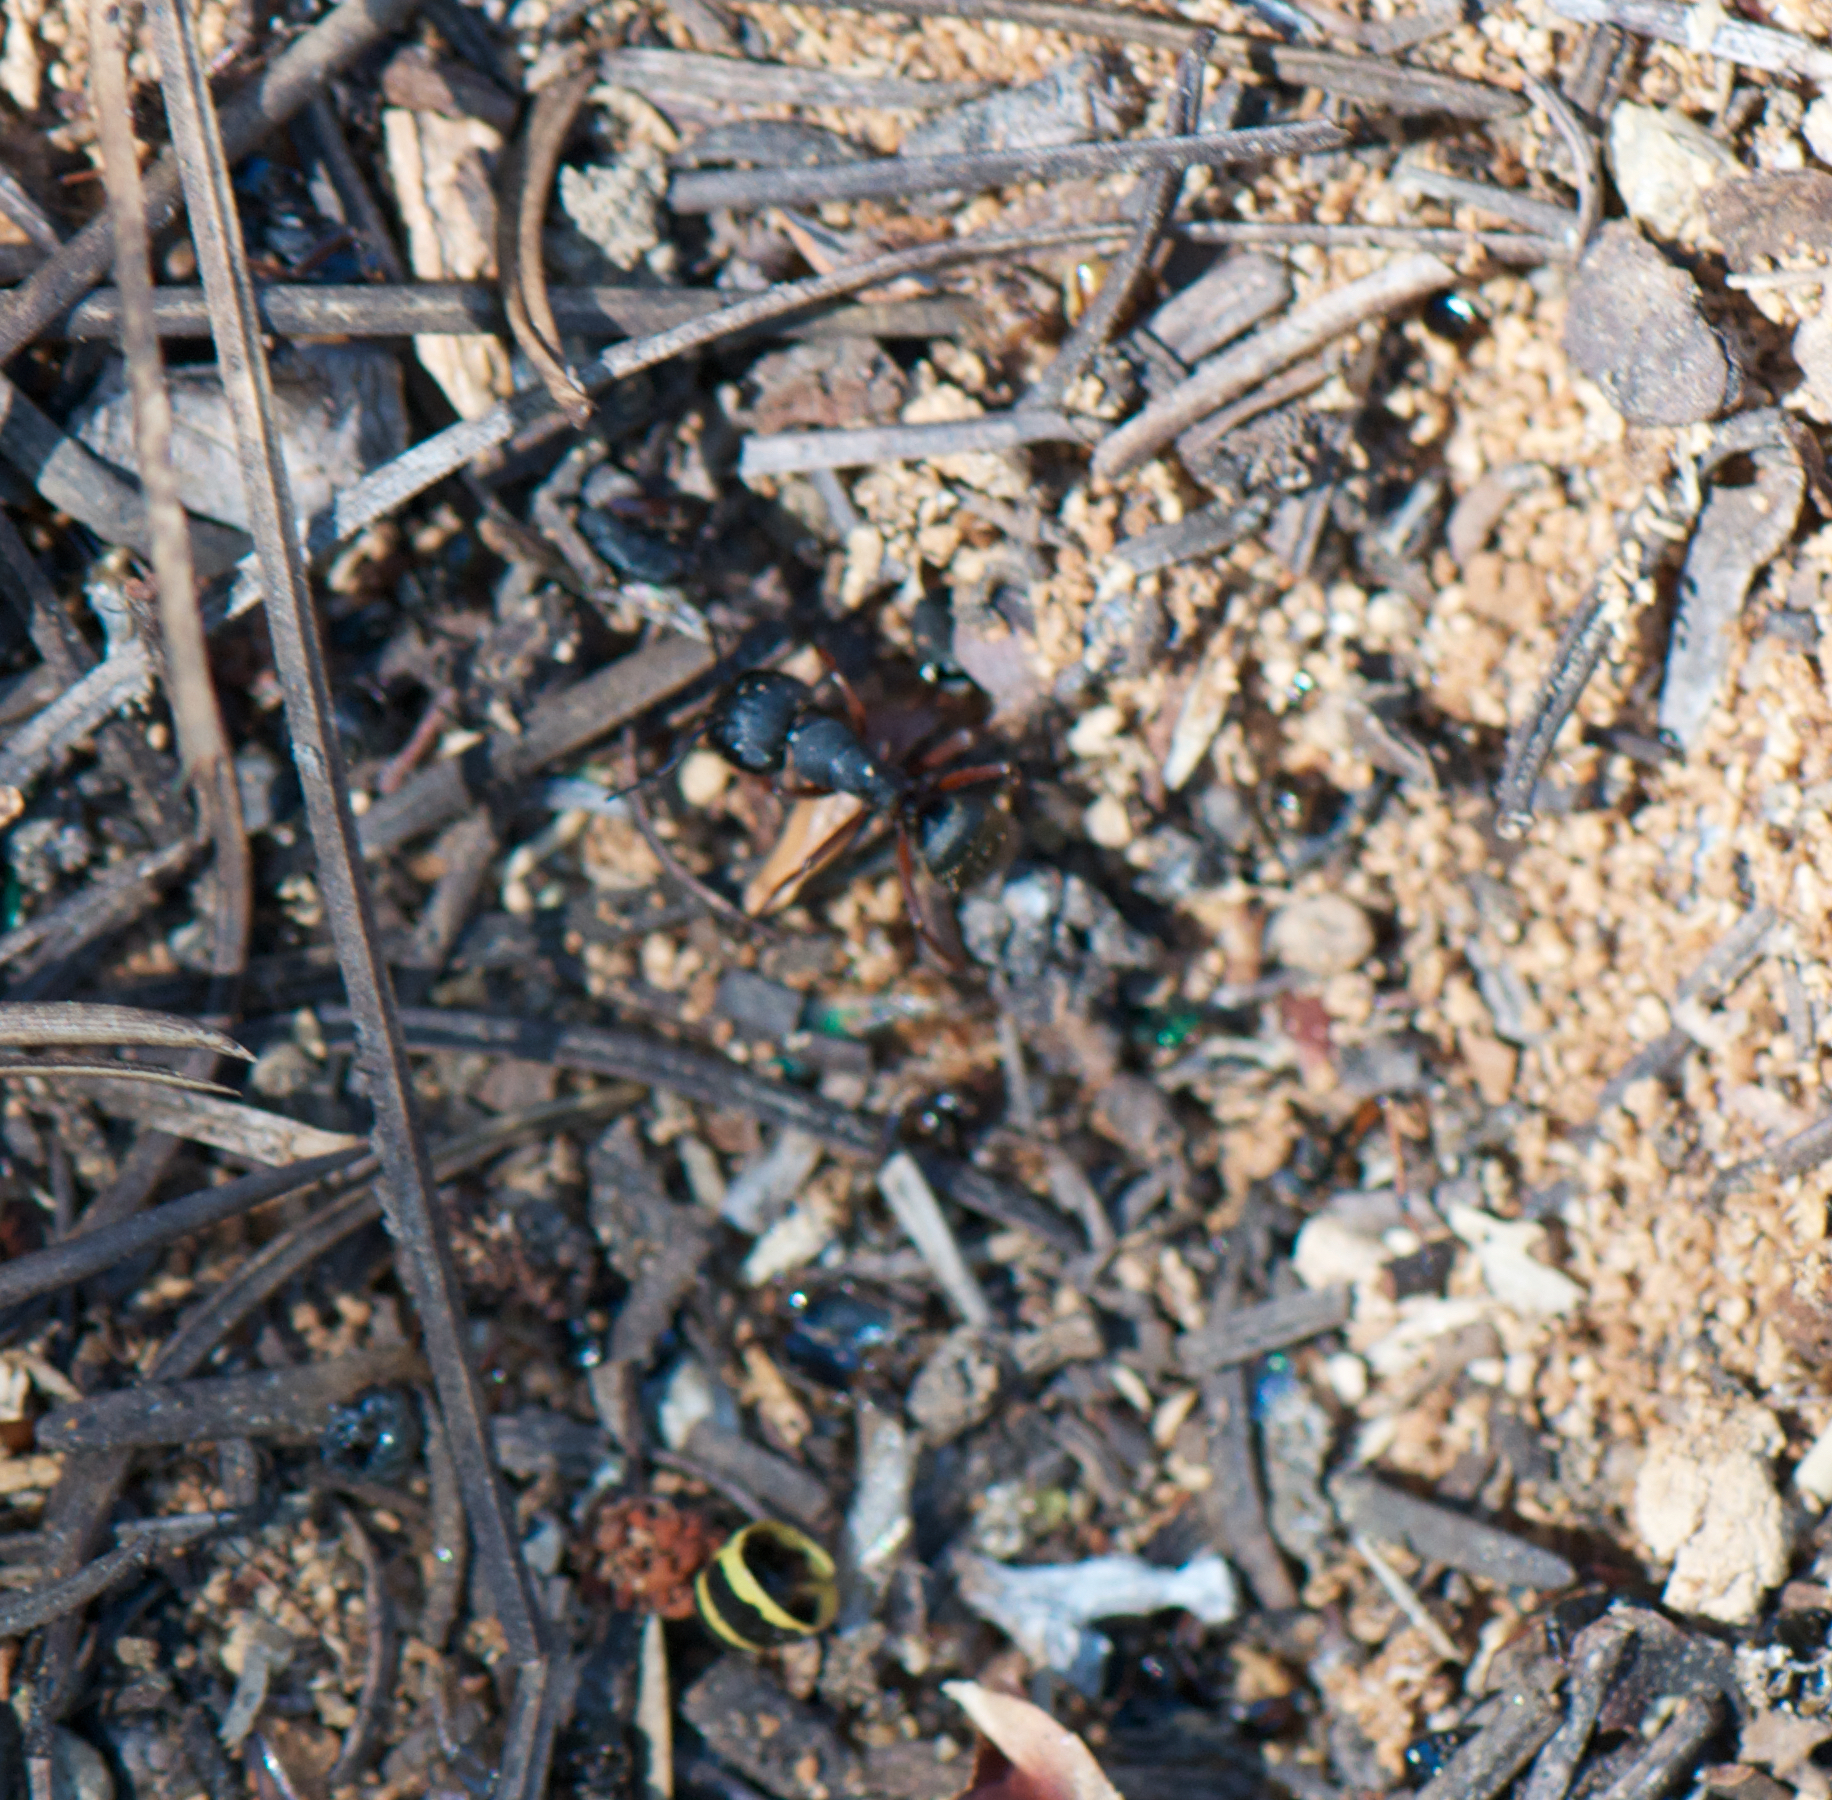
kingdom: Animalia
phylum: Arthropoda
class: Insecta
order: Hymenoptera
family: Formicidae
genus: Camponotus
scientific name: Camponotus modoc
